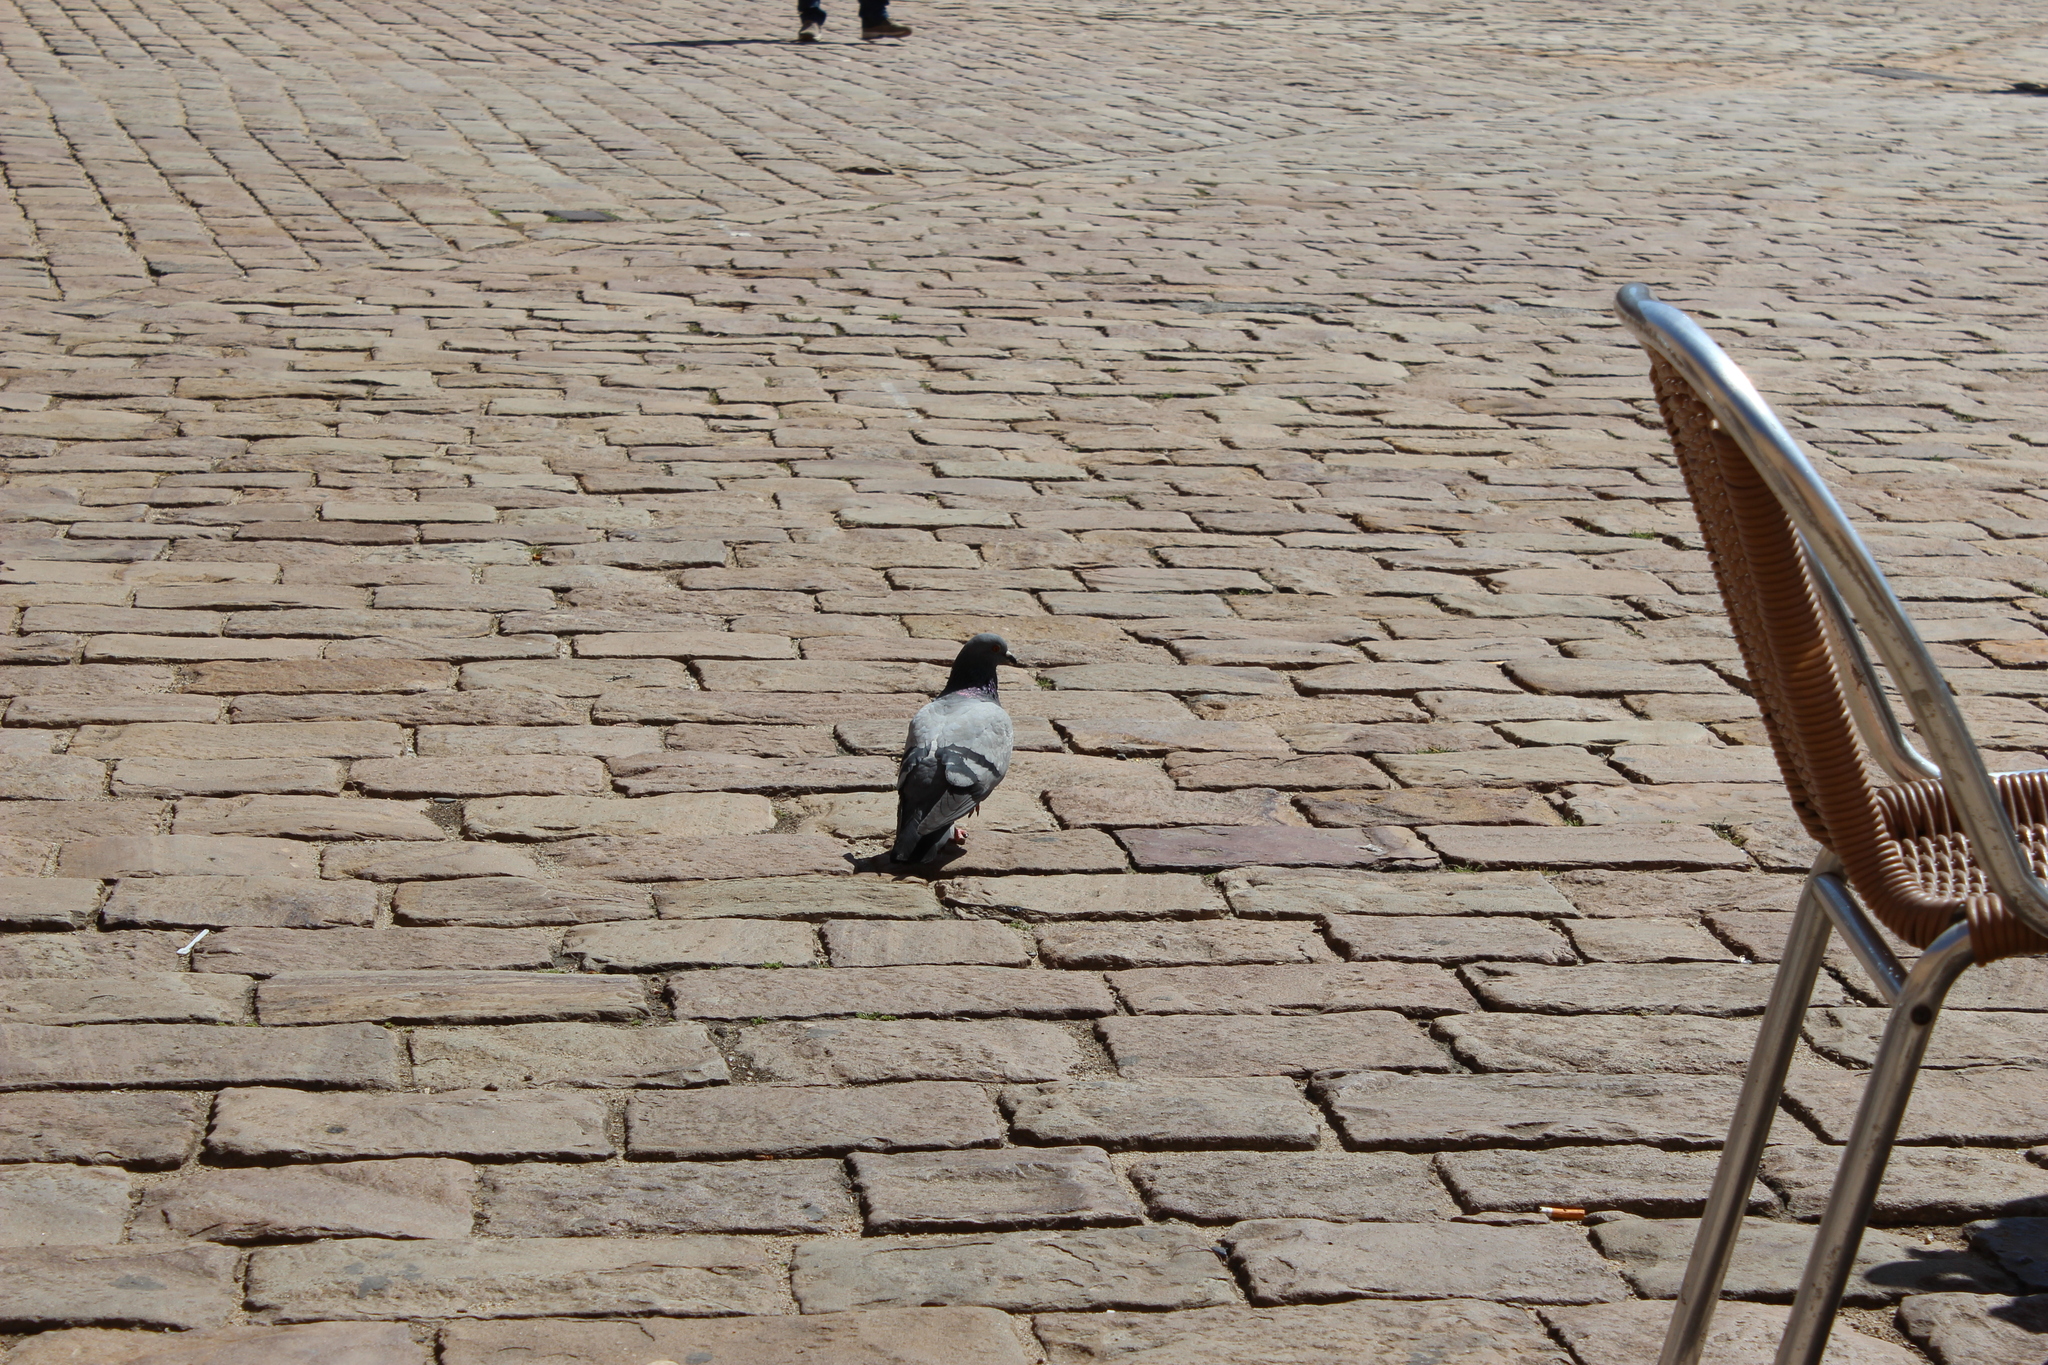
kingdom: Animalia
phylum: Chordata
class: Aves
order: Columbiformes
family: Columbidae
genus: Columba
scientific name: Columba livia
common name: Rock pigeon
